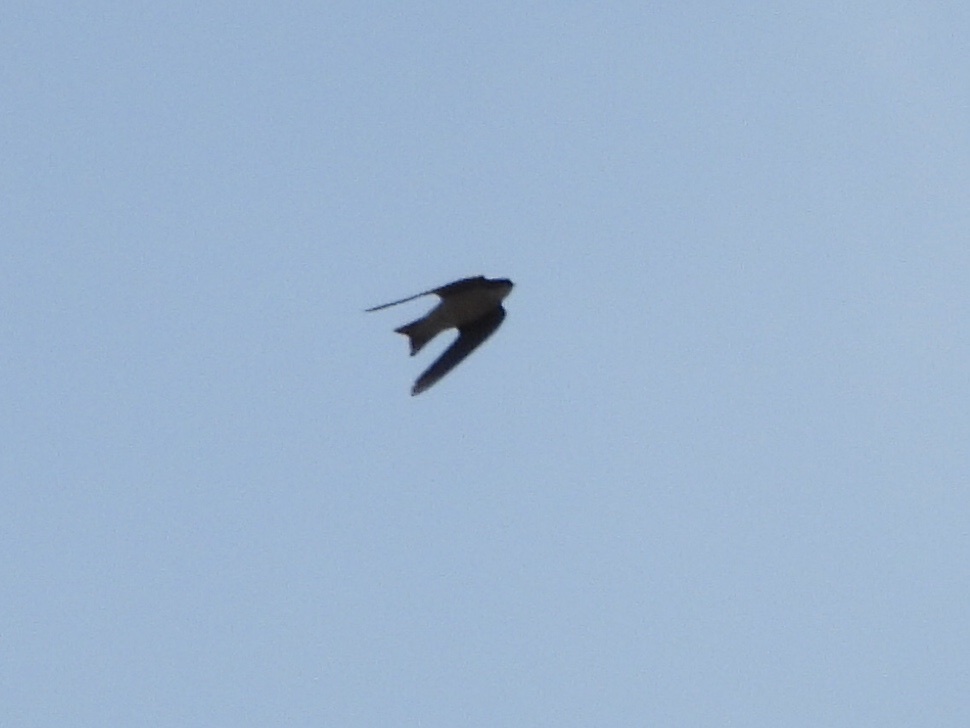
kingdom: Animalia
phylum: Chordata
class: Aves
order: Passeriformes
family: Hirundinidae
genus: Tachycineta
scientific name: Tachycineta bicolor
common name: Tree swallow
